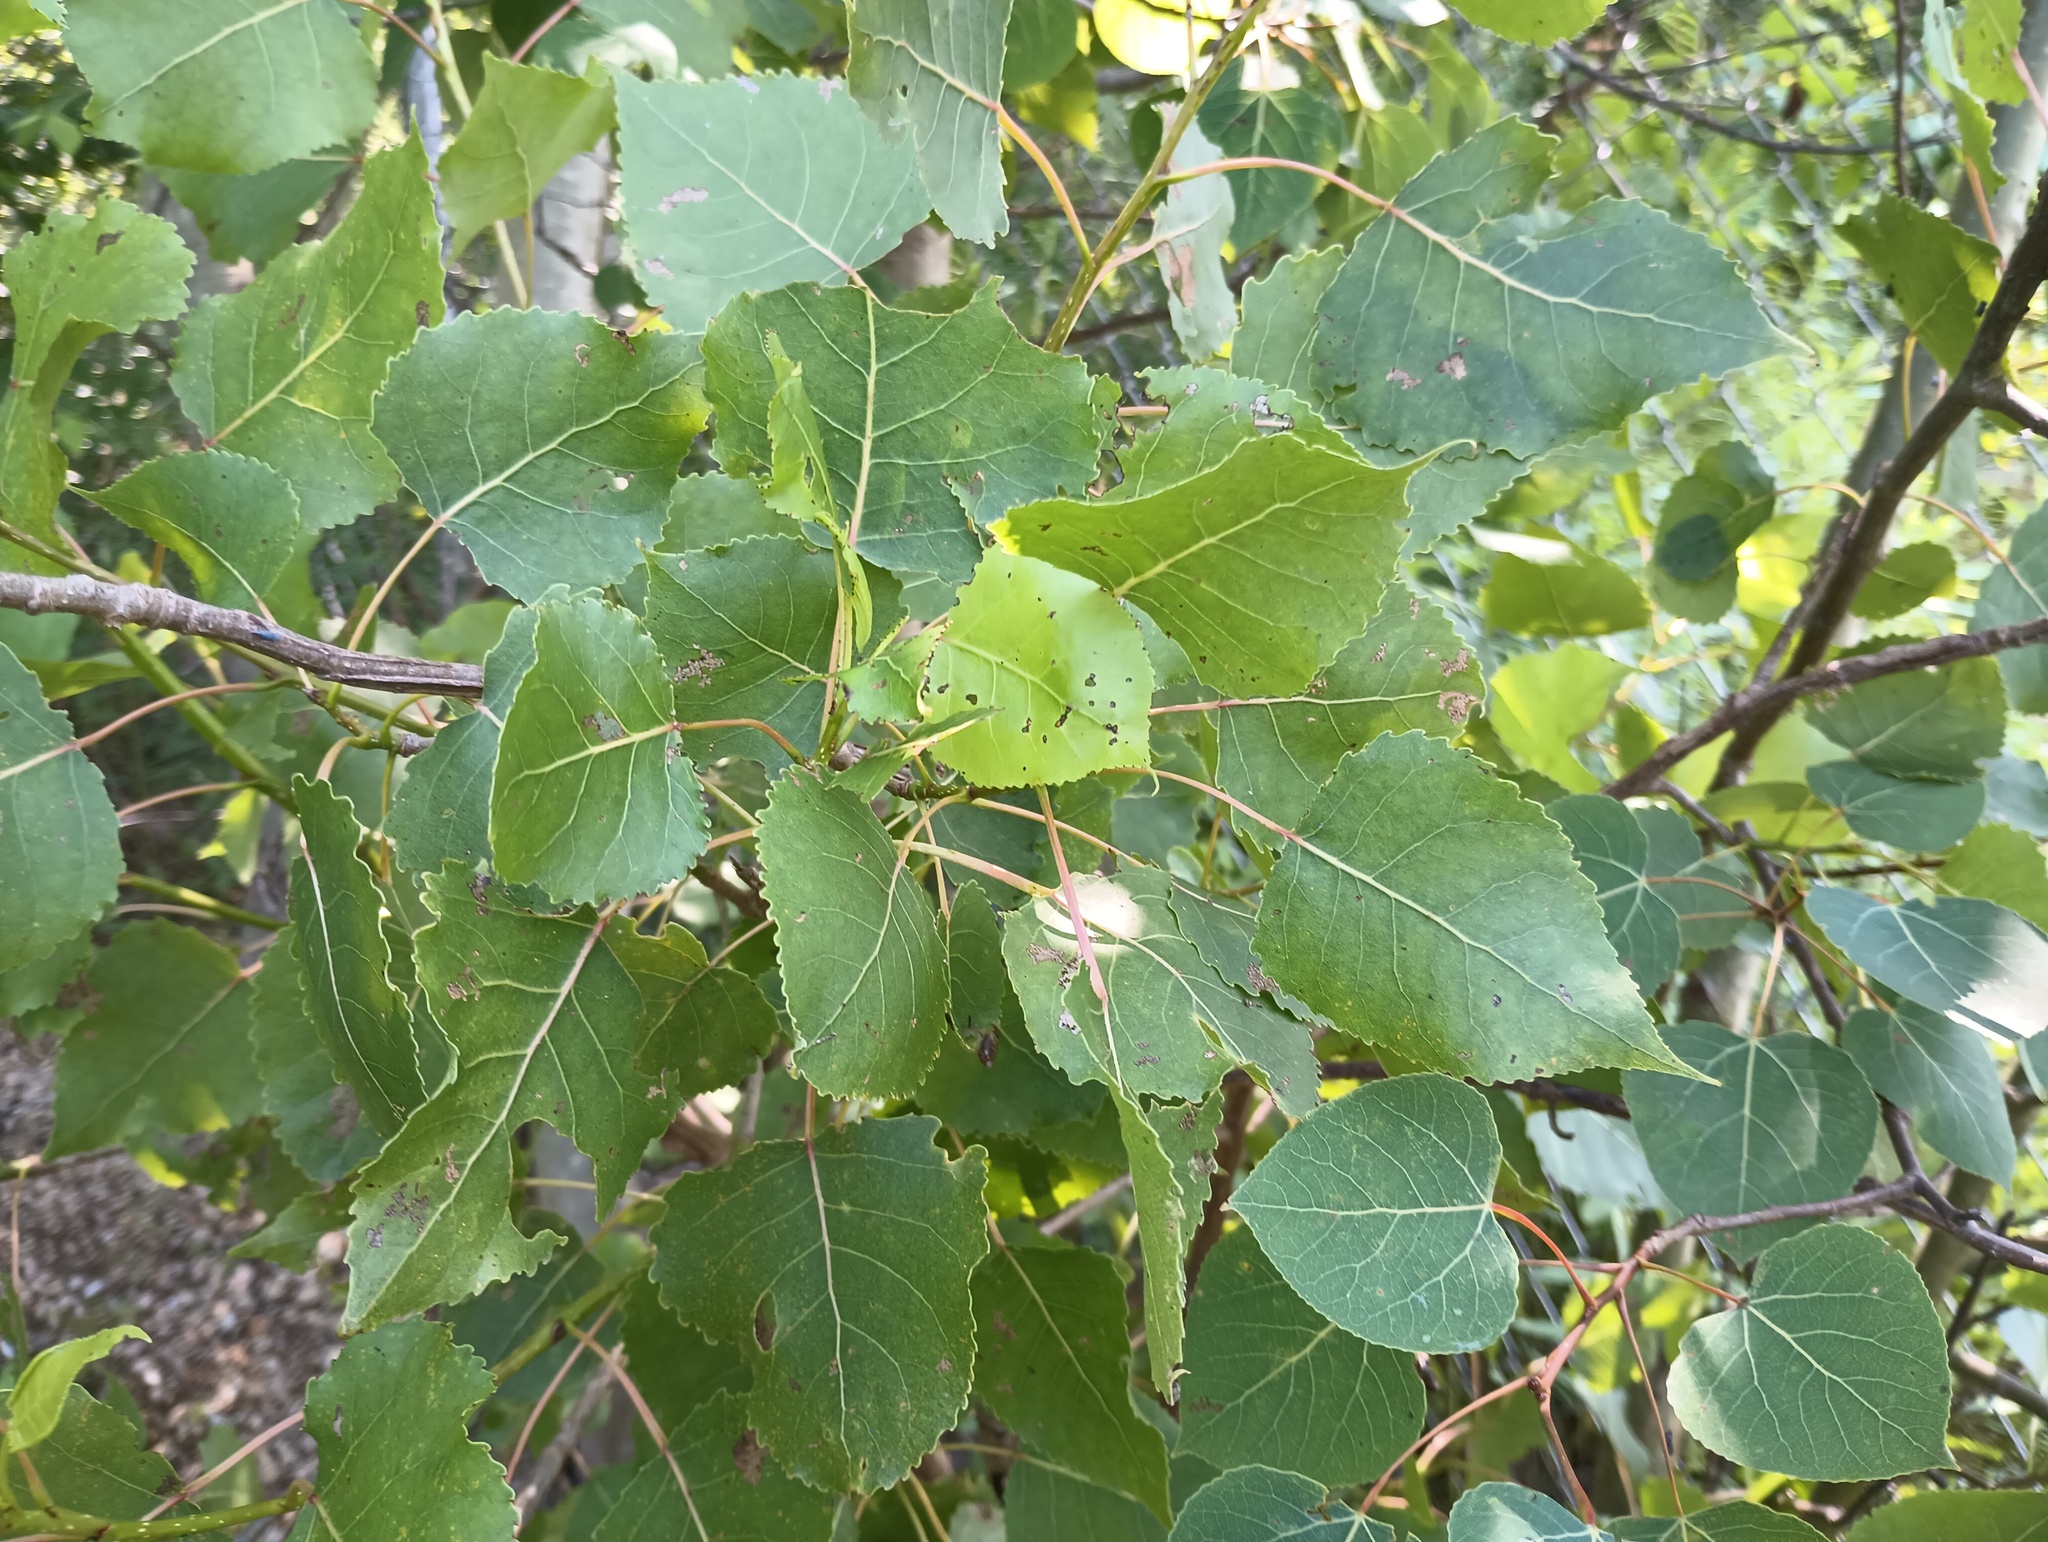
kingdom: Plantae
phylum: Tracheophyta
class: Magnoliopsida
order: Malpighiales
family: Salicaceae
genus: Populus
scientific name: Populus deltoides
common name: Eastern cottonwood
